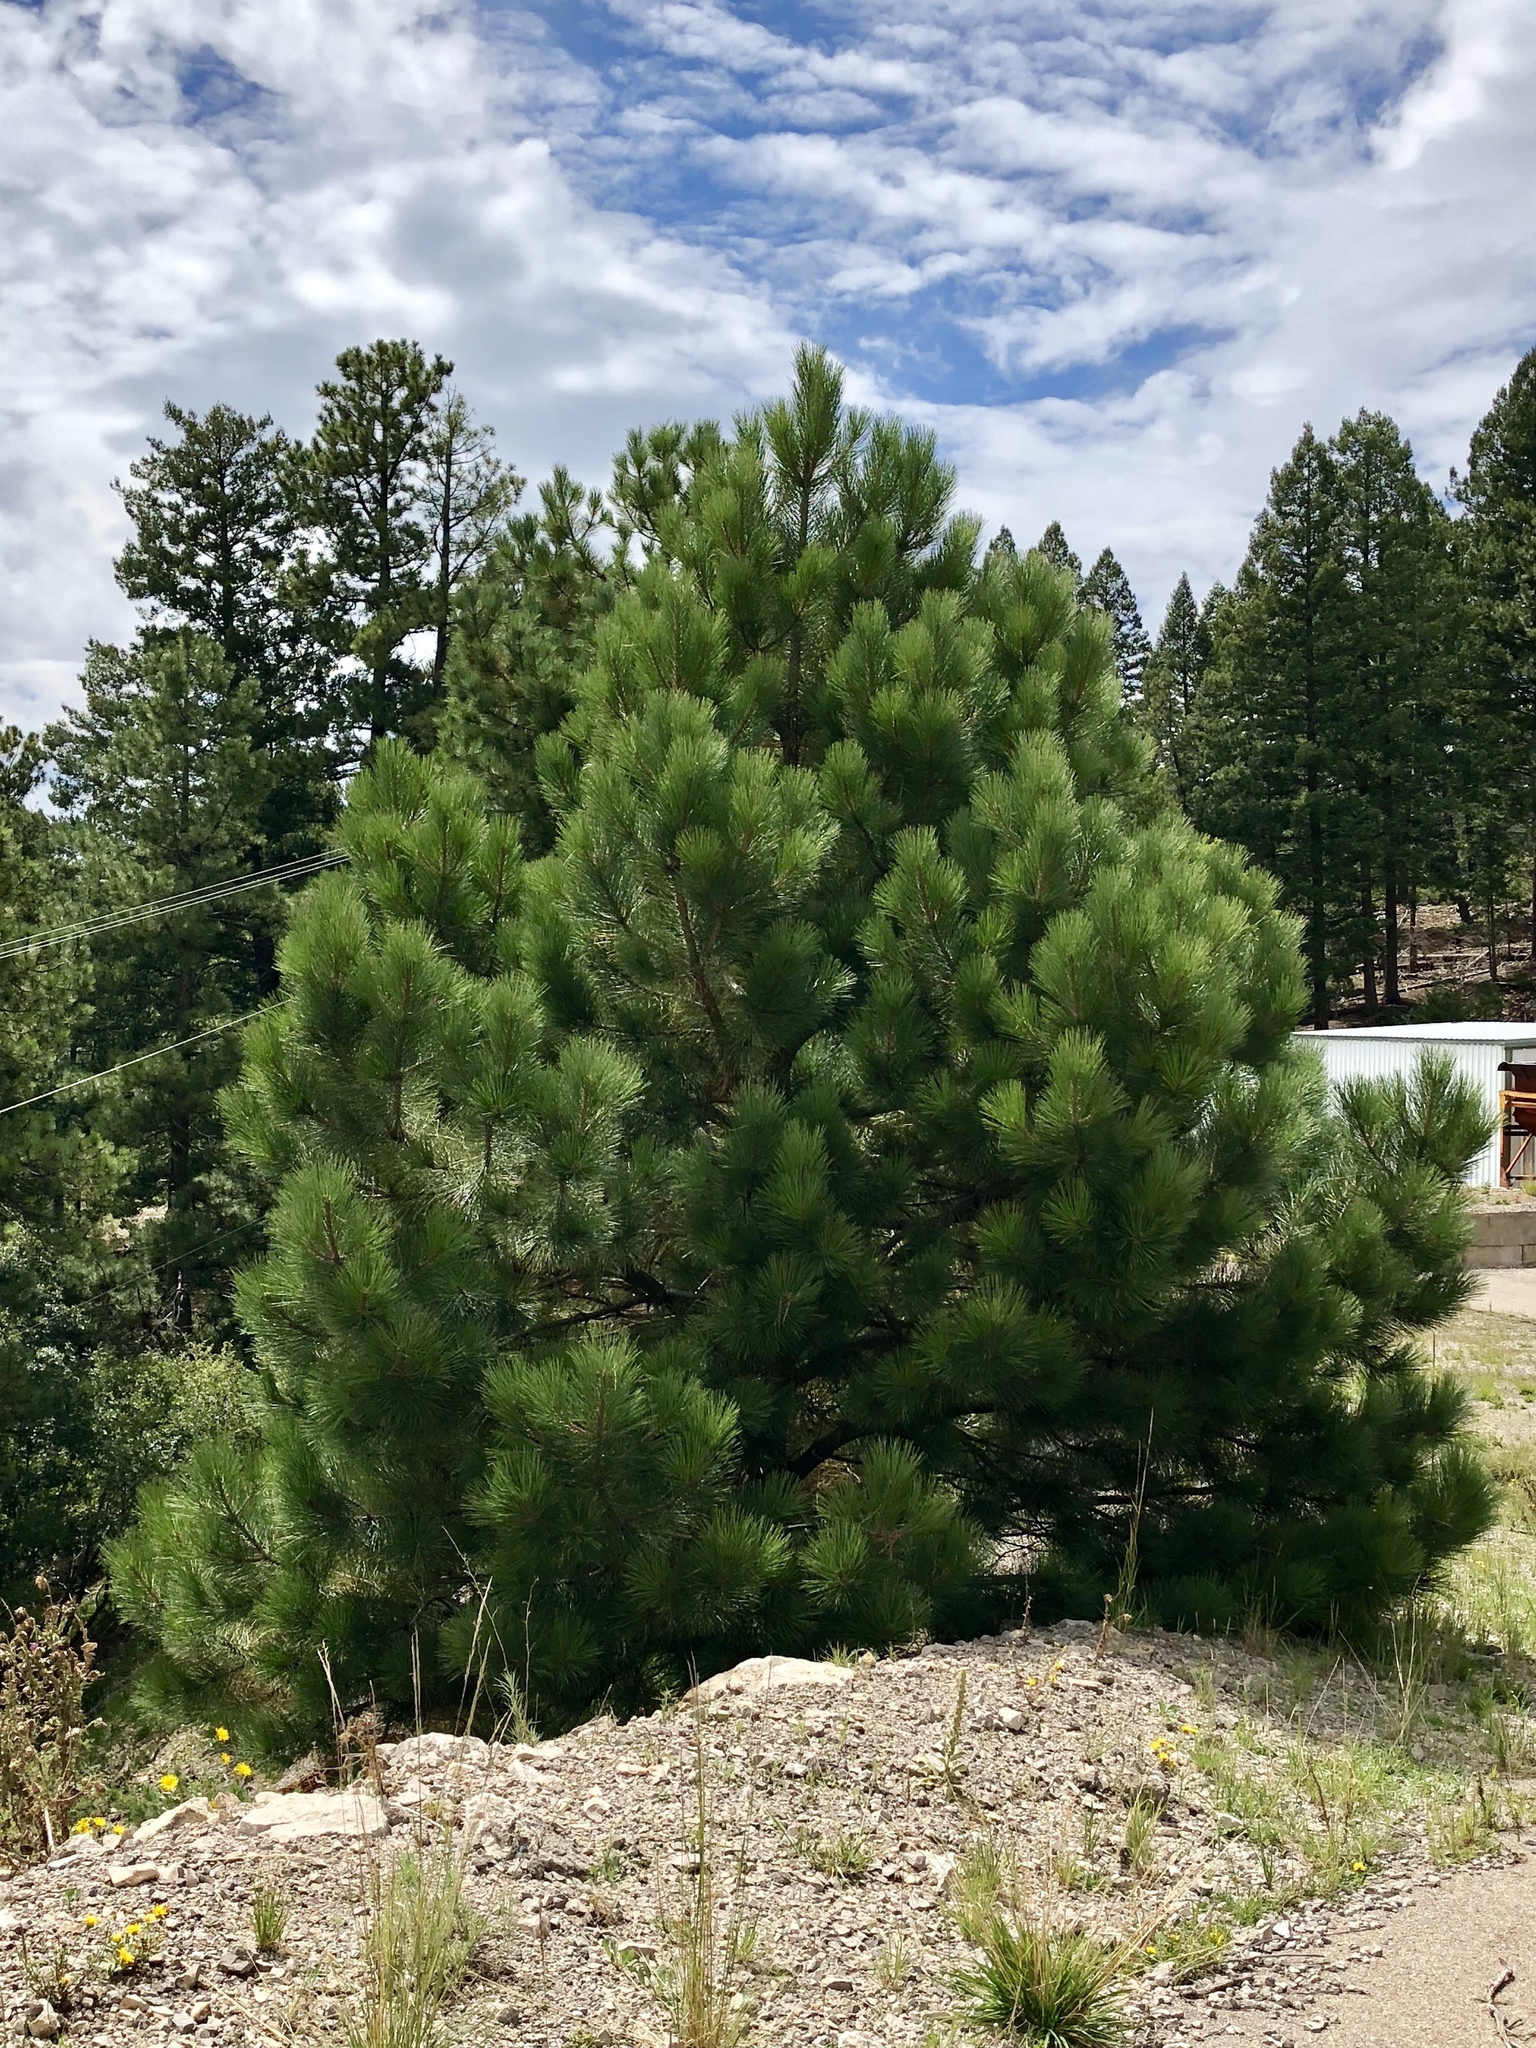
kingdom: Plantae
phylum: Tracheophyta
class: Pinopsida
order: Pinales
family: Pinaceae
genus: Pinus
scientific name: Pinus ponderosa
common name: Western yellow-pine
